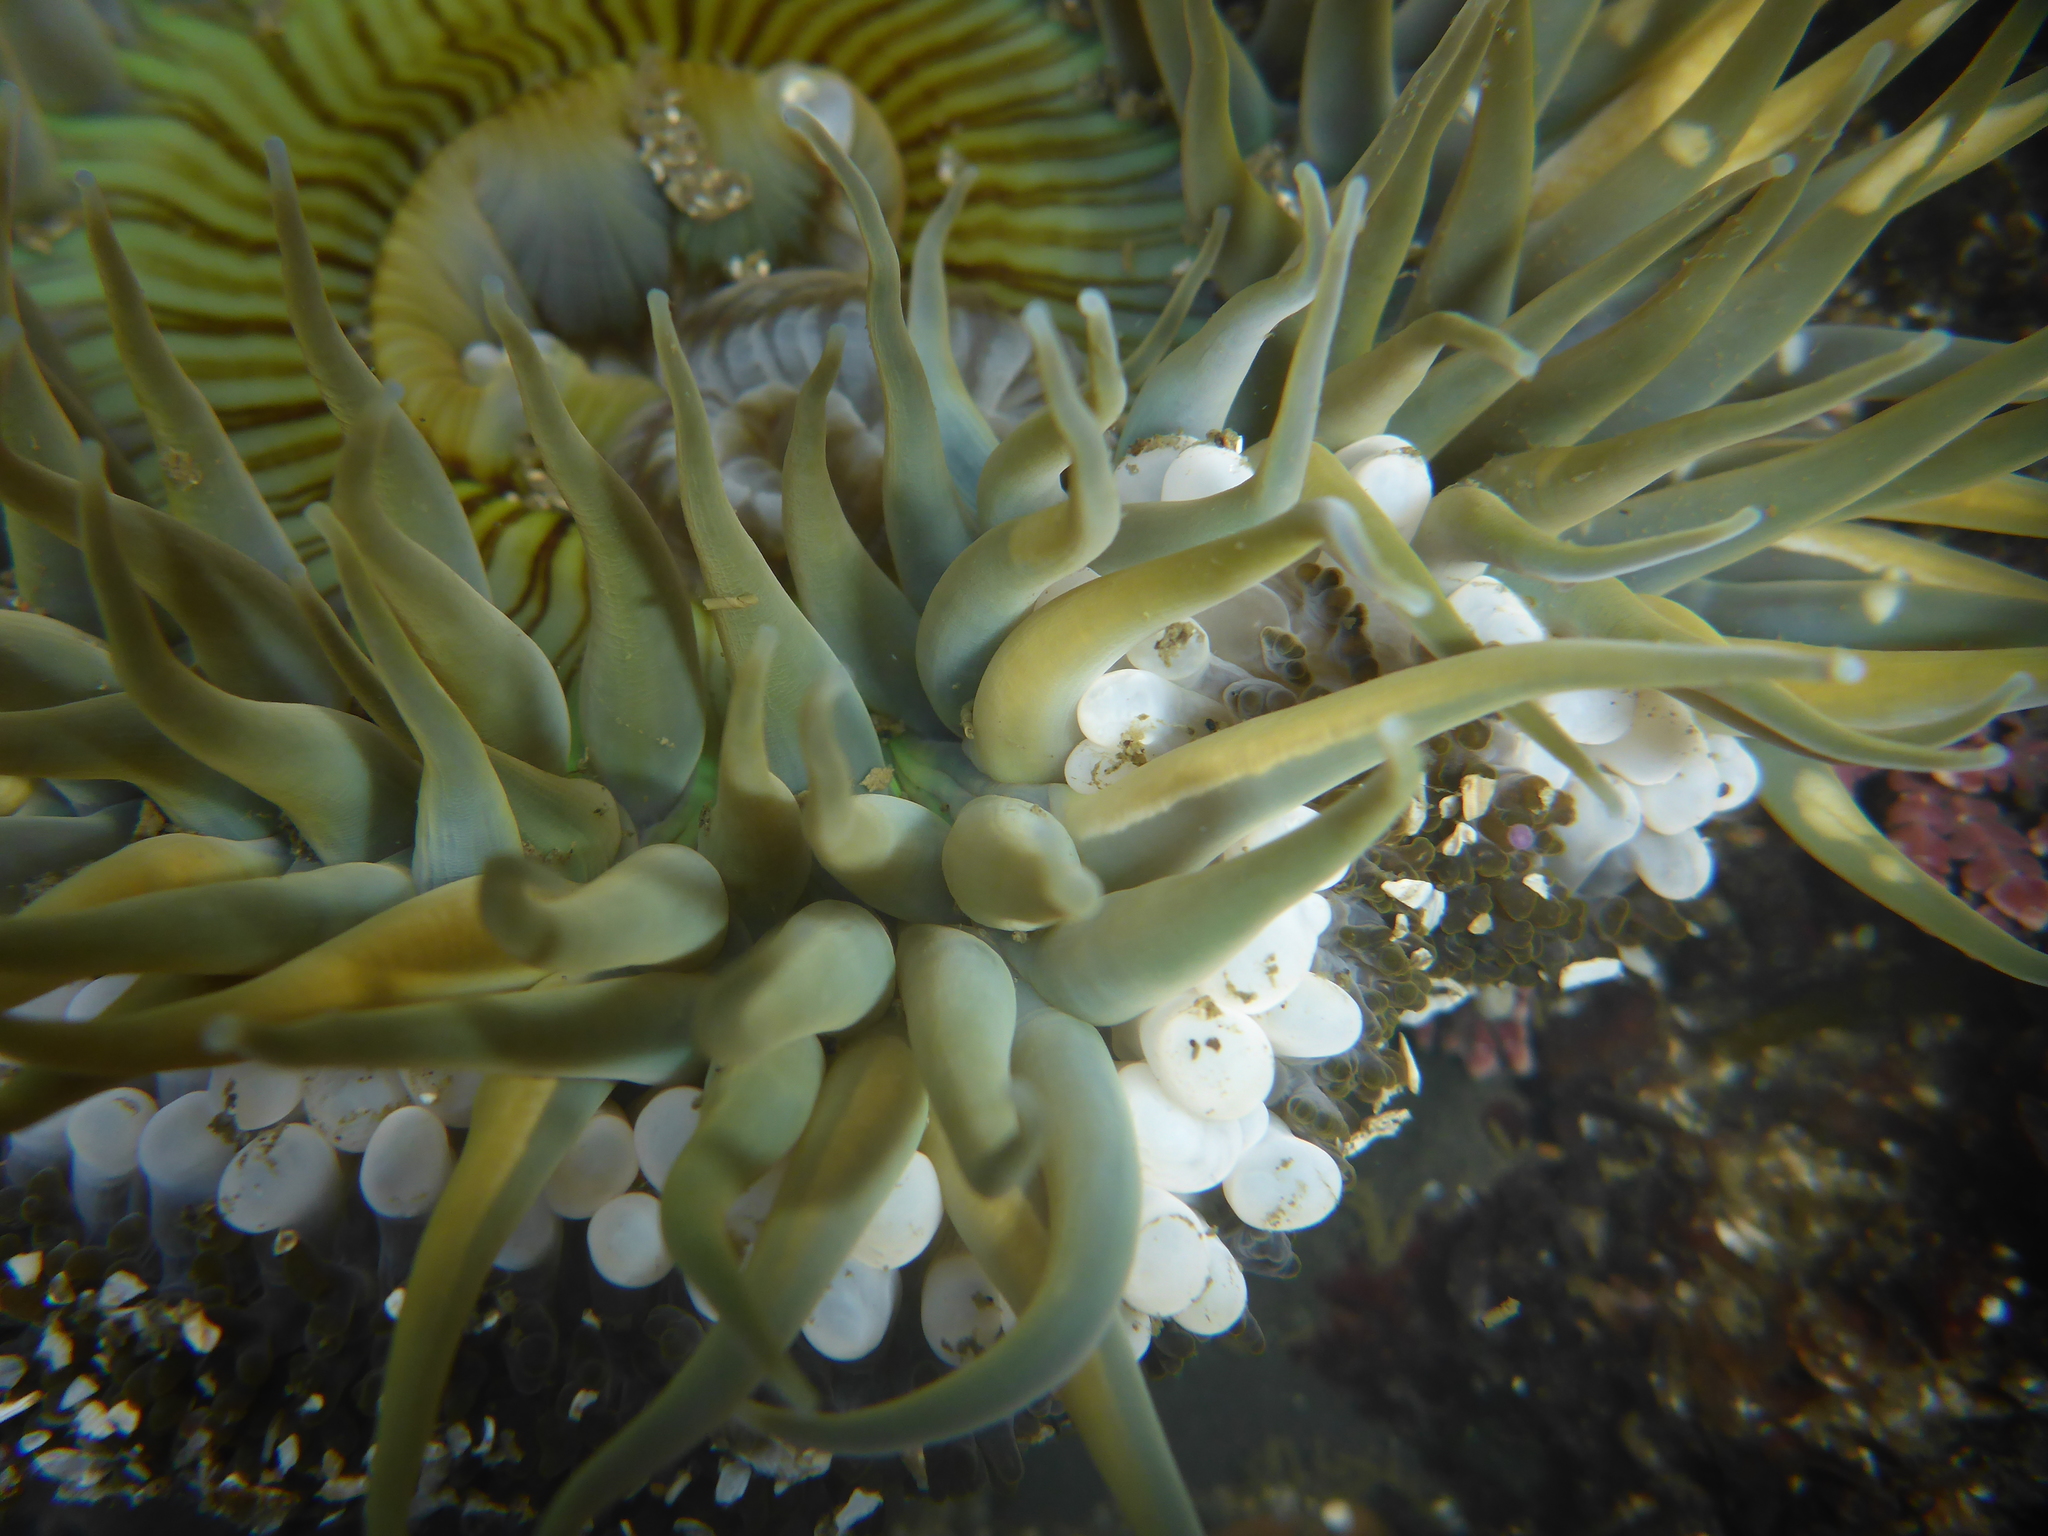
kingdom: Animalia
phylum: Cnidaria
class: Anthozoa
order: Actiniaria
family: Actiniidae
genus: Anthopleura
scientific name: Anthopleura sola
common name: Sun anemone
